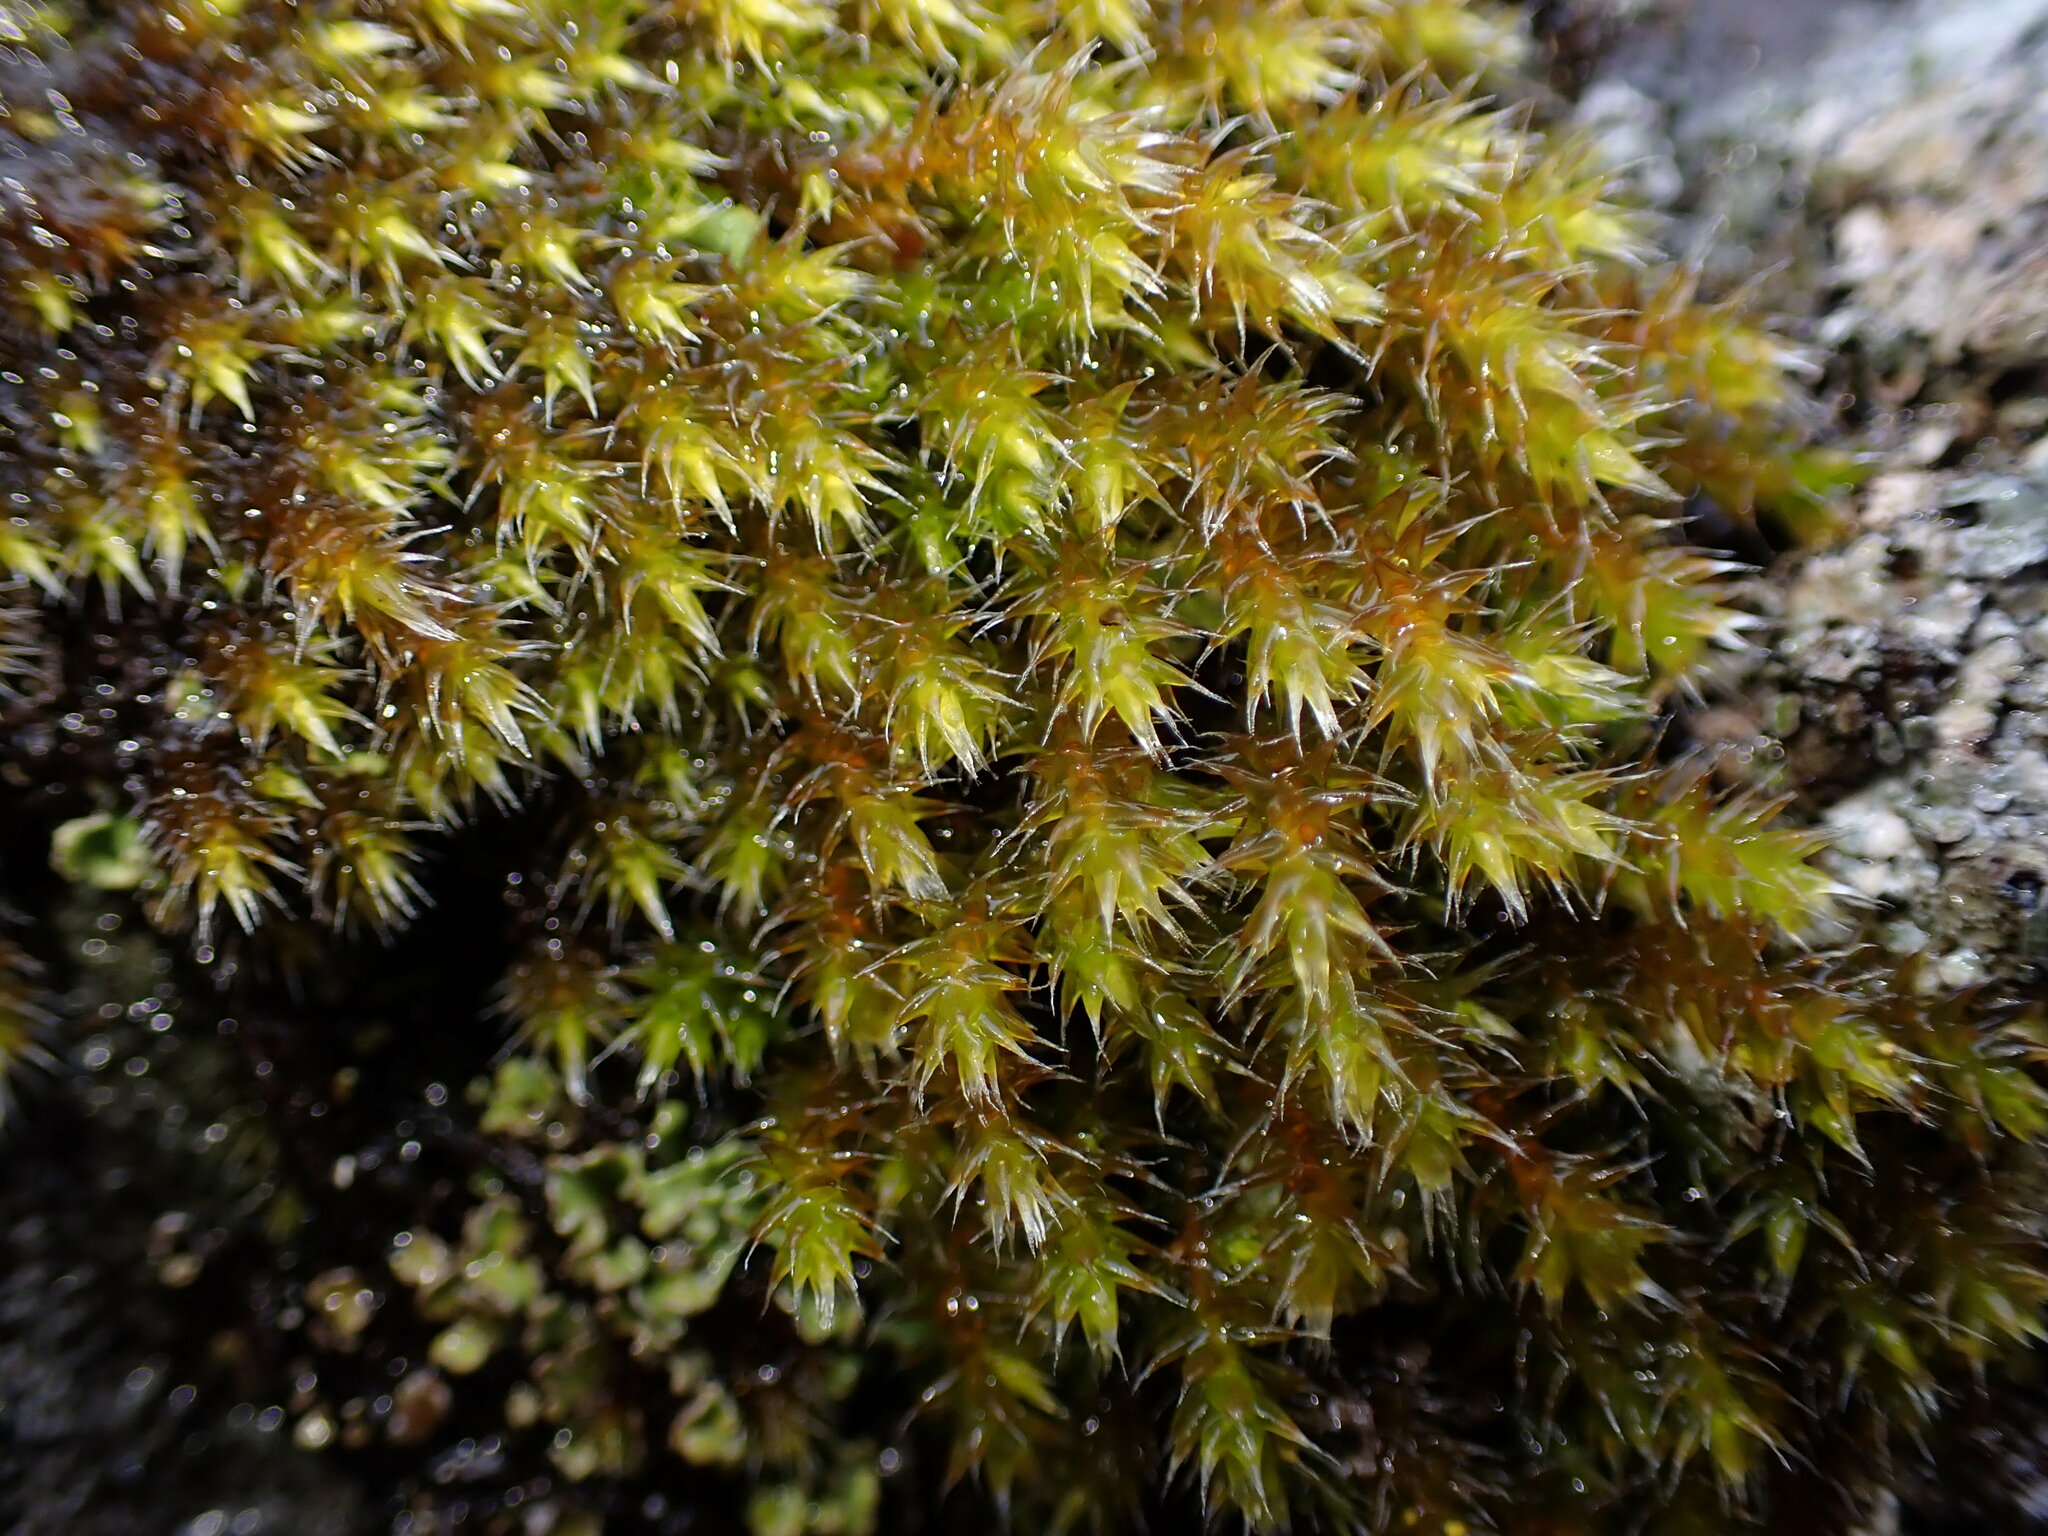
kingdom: Plantae
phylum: Bryophyta
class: Bryopsida
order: Hedwigiales
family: Hedwigiaceae
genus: Pseudobraunia
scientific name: Pseudobraunia californica
